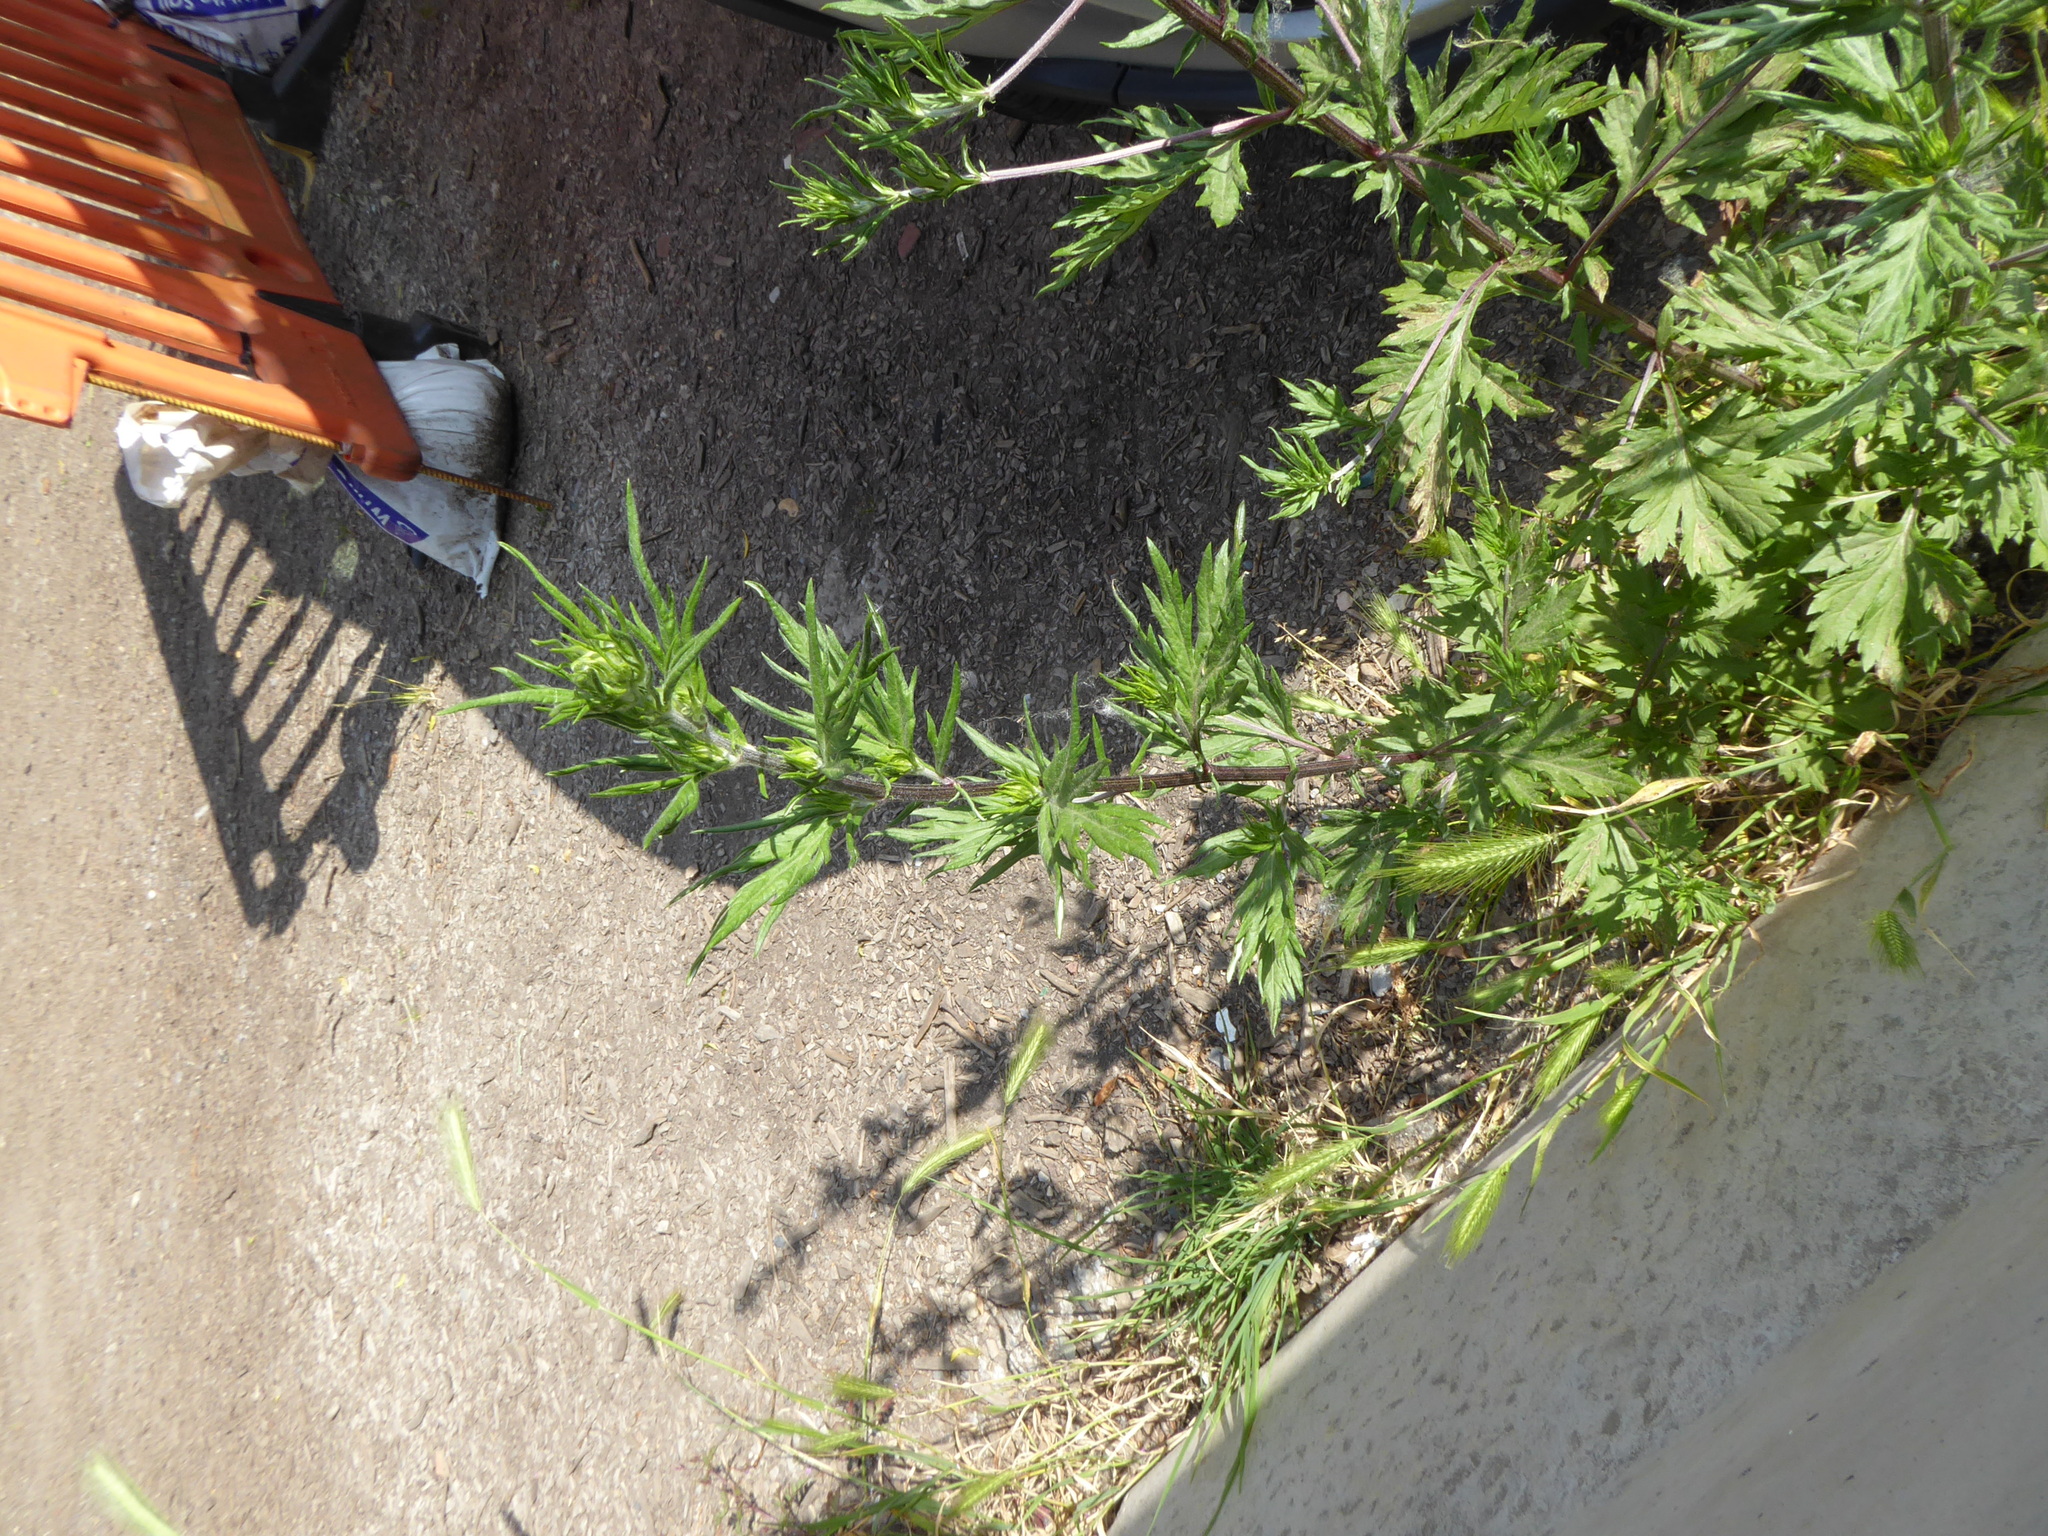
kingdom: Plantae
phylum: Tracheophyta
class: Magnoliopsida
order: Asterales
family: Asteraceae
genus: Artemisia
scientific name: Artemisia vulgaris
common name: Mugwort
